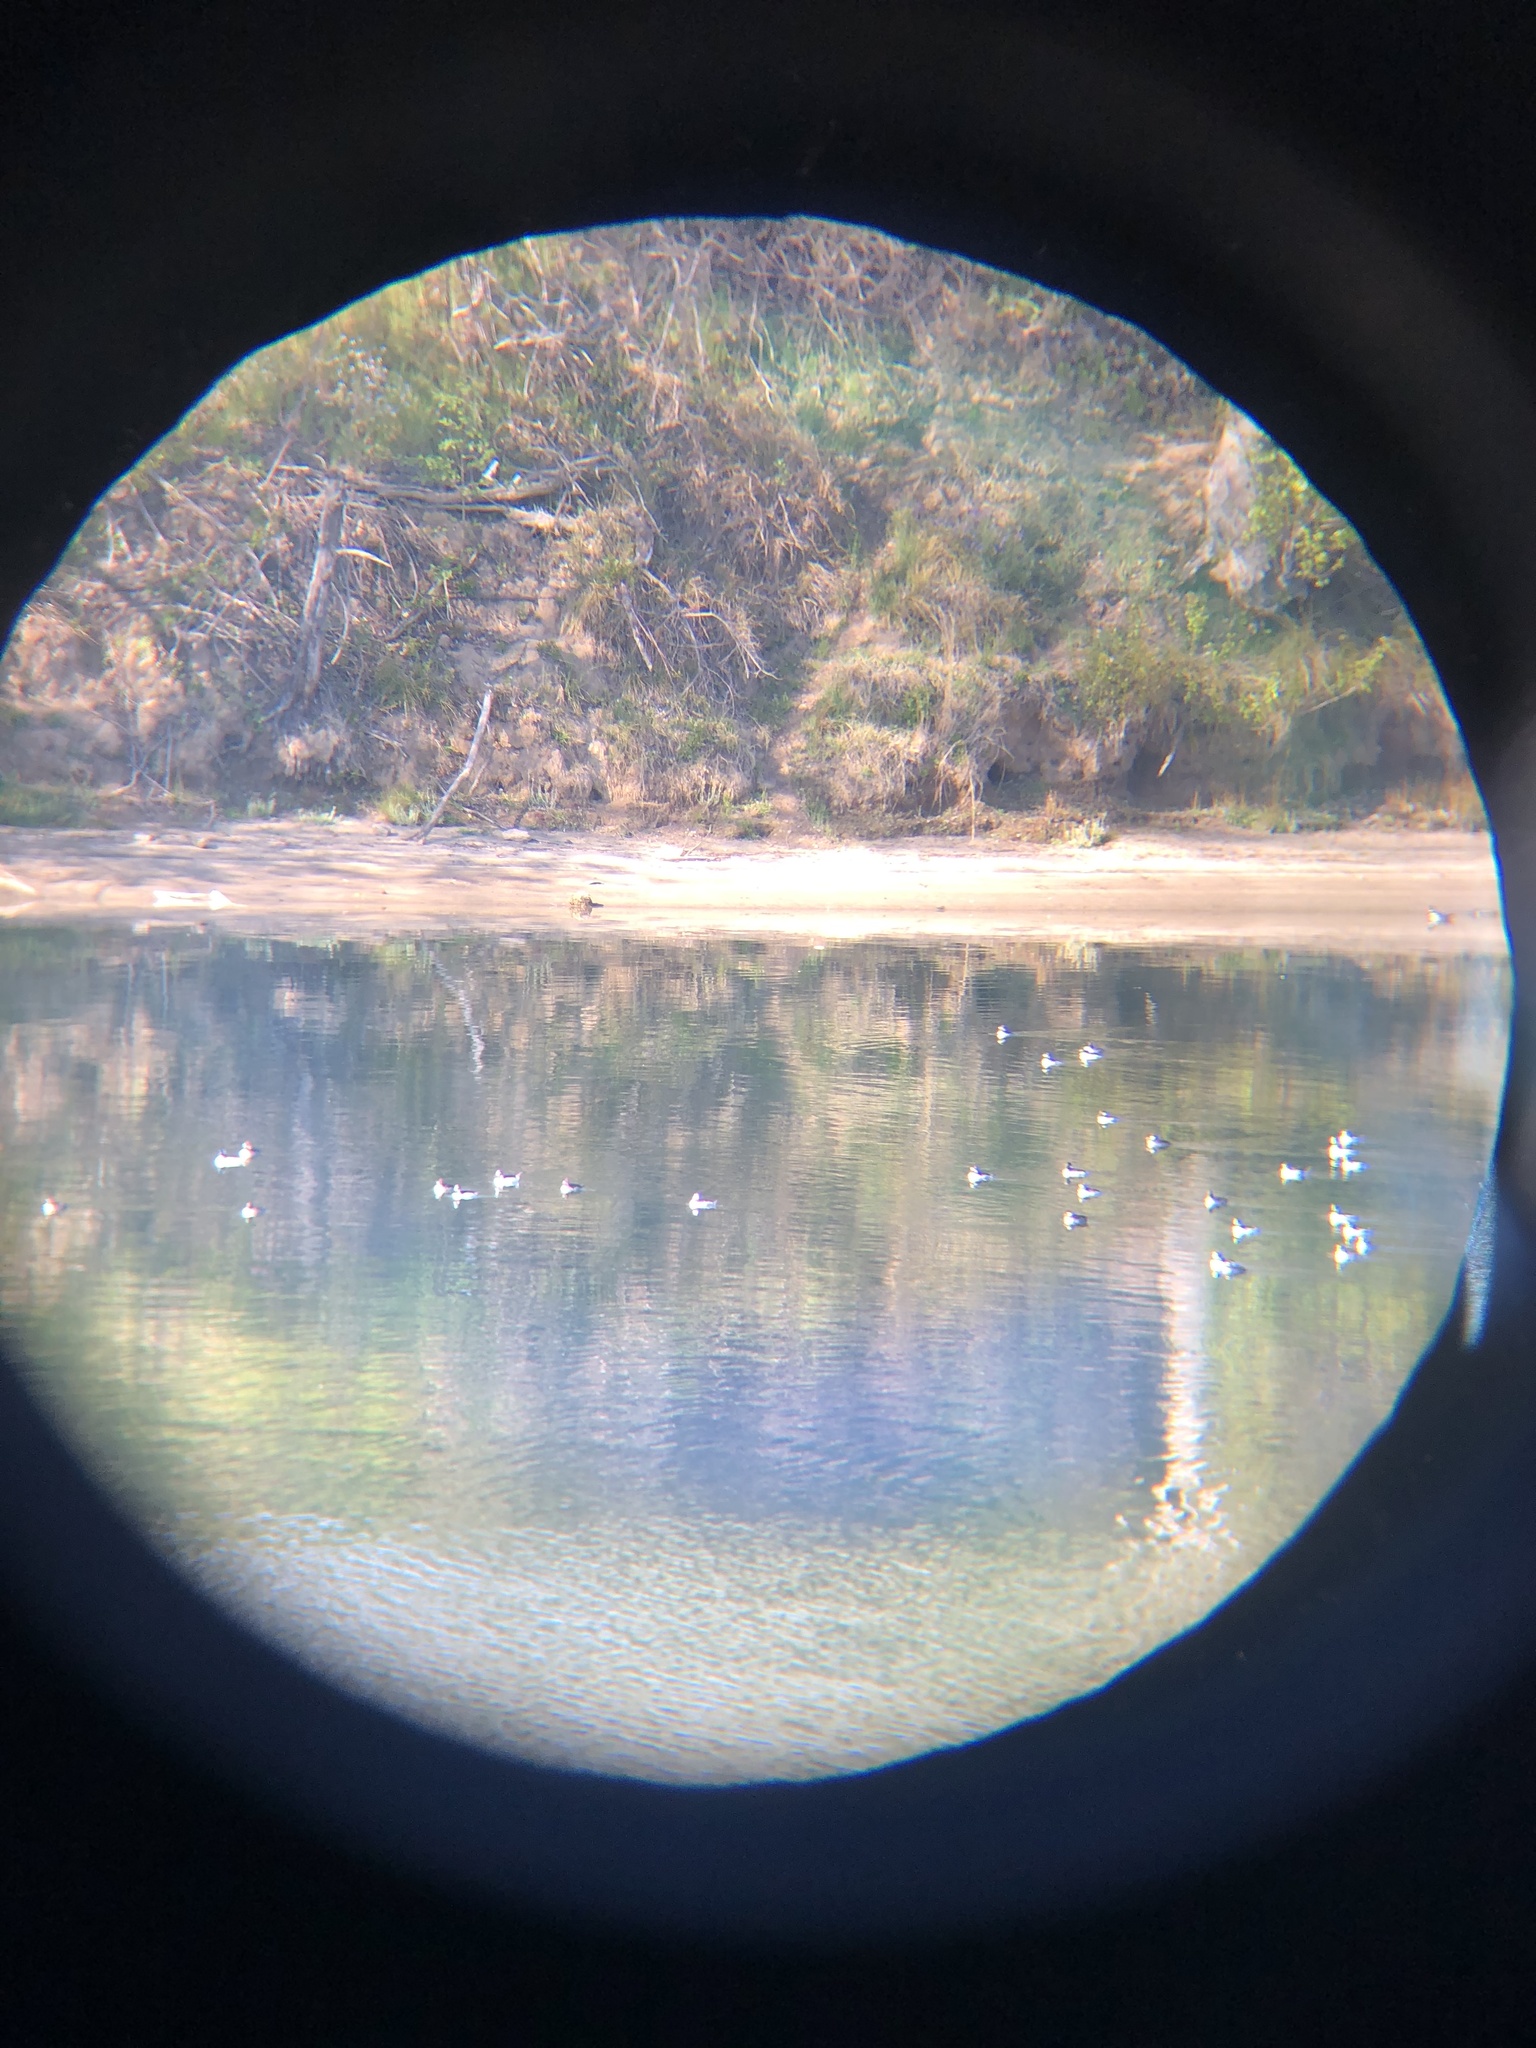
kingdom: Animalia
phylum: Chordata
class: Aves
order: Anseriformes
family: Anatidae
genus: Bucephala
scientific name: Bucephala albeola
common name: Bufflehead
